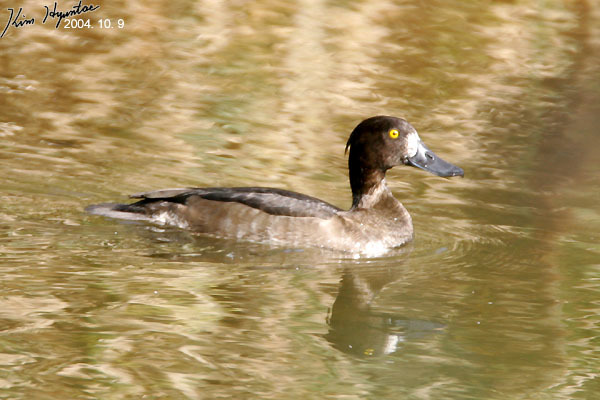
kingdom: Animalia
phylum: Chordata
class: Aves
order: Anseriformes
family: Anatidae
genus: Aythya
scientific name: Aythya fuligula
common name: Tufted duck
